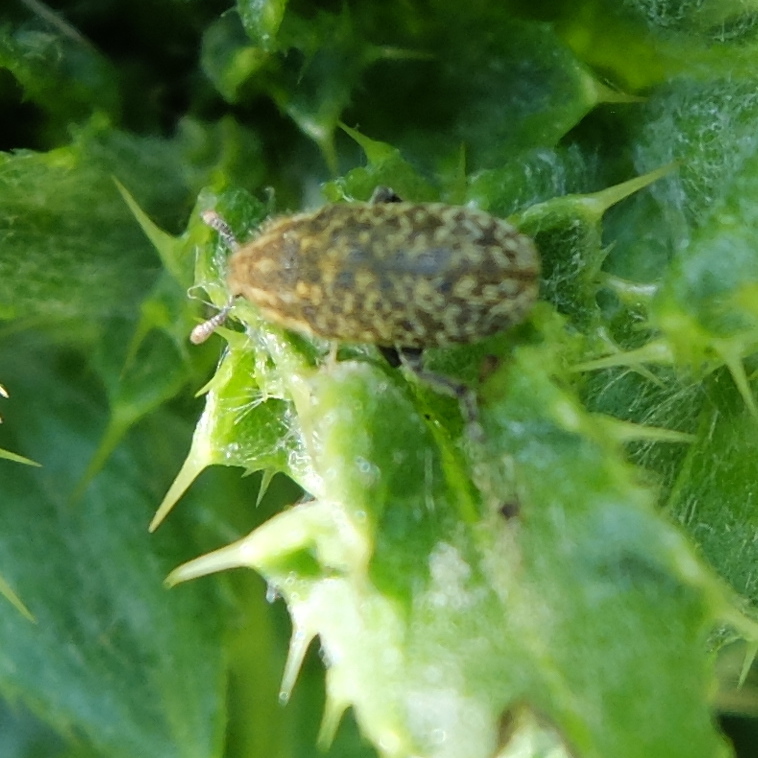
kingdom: Animalia
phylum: Arthropoda
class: Insecta
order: Coleoptera
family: Curculionidae
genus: Rhinocyllus
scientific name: Rhinocyllus conicus
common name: Weevil
